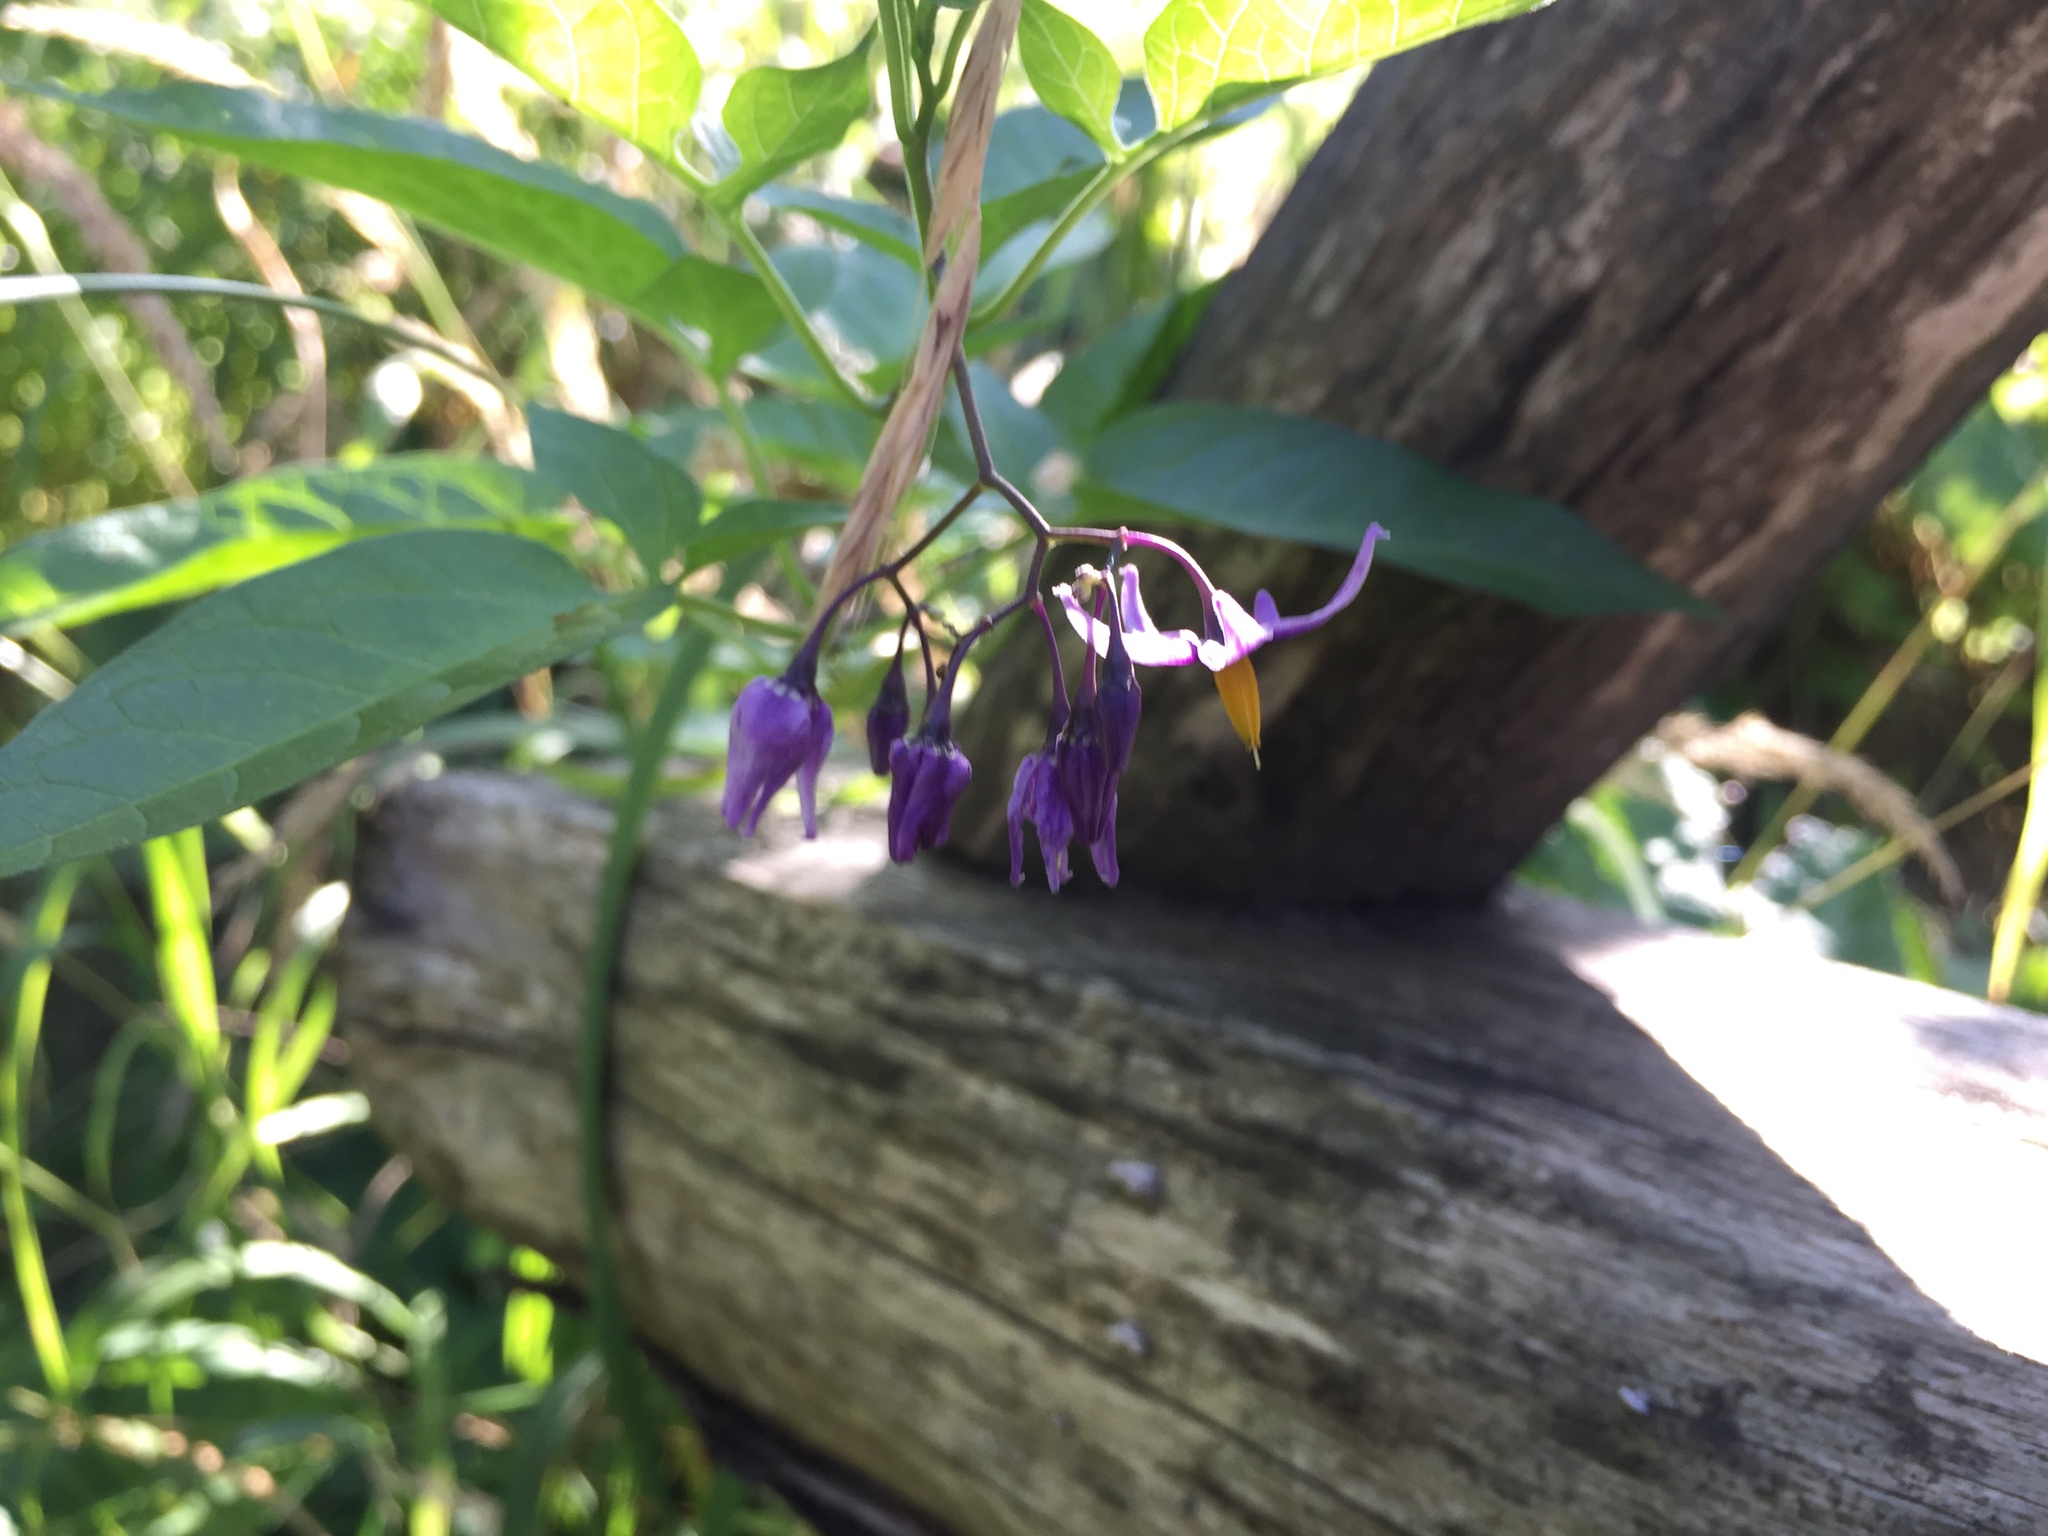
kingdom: Plantae
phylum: Tracheophyta
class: Magnoliopsida
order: Solanales
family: Solanaceae
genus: Solanum
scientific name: Solanum dulcamara
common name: Climbing nightshade
